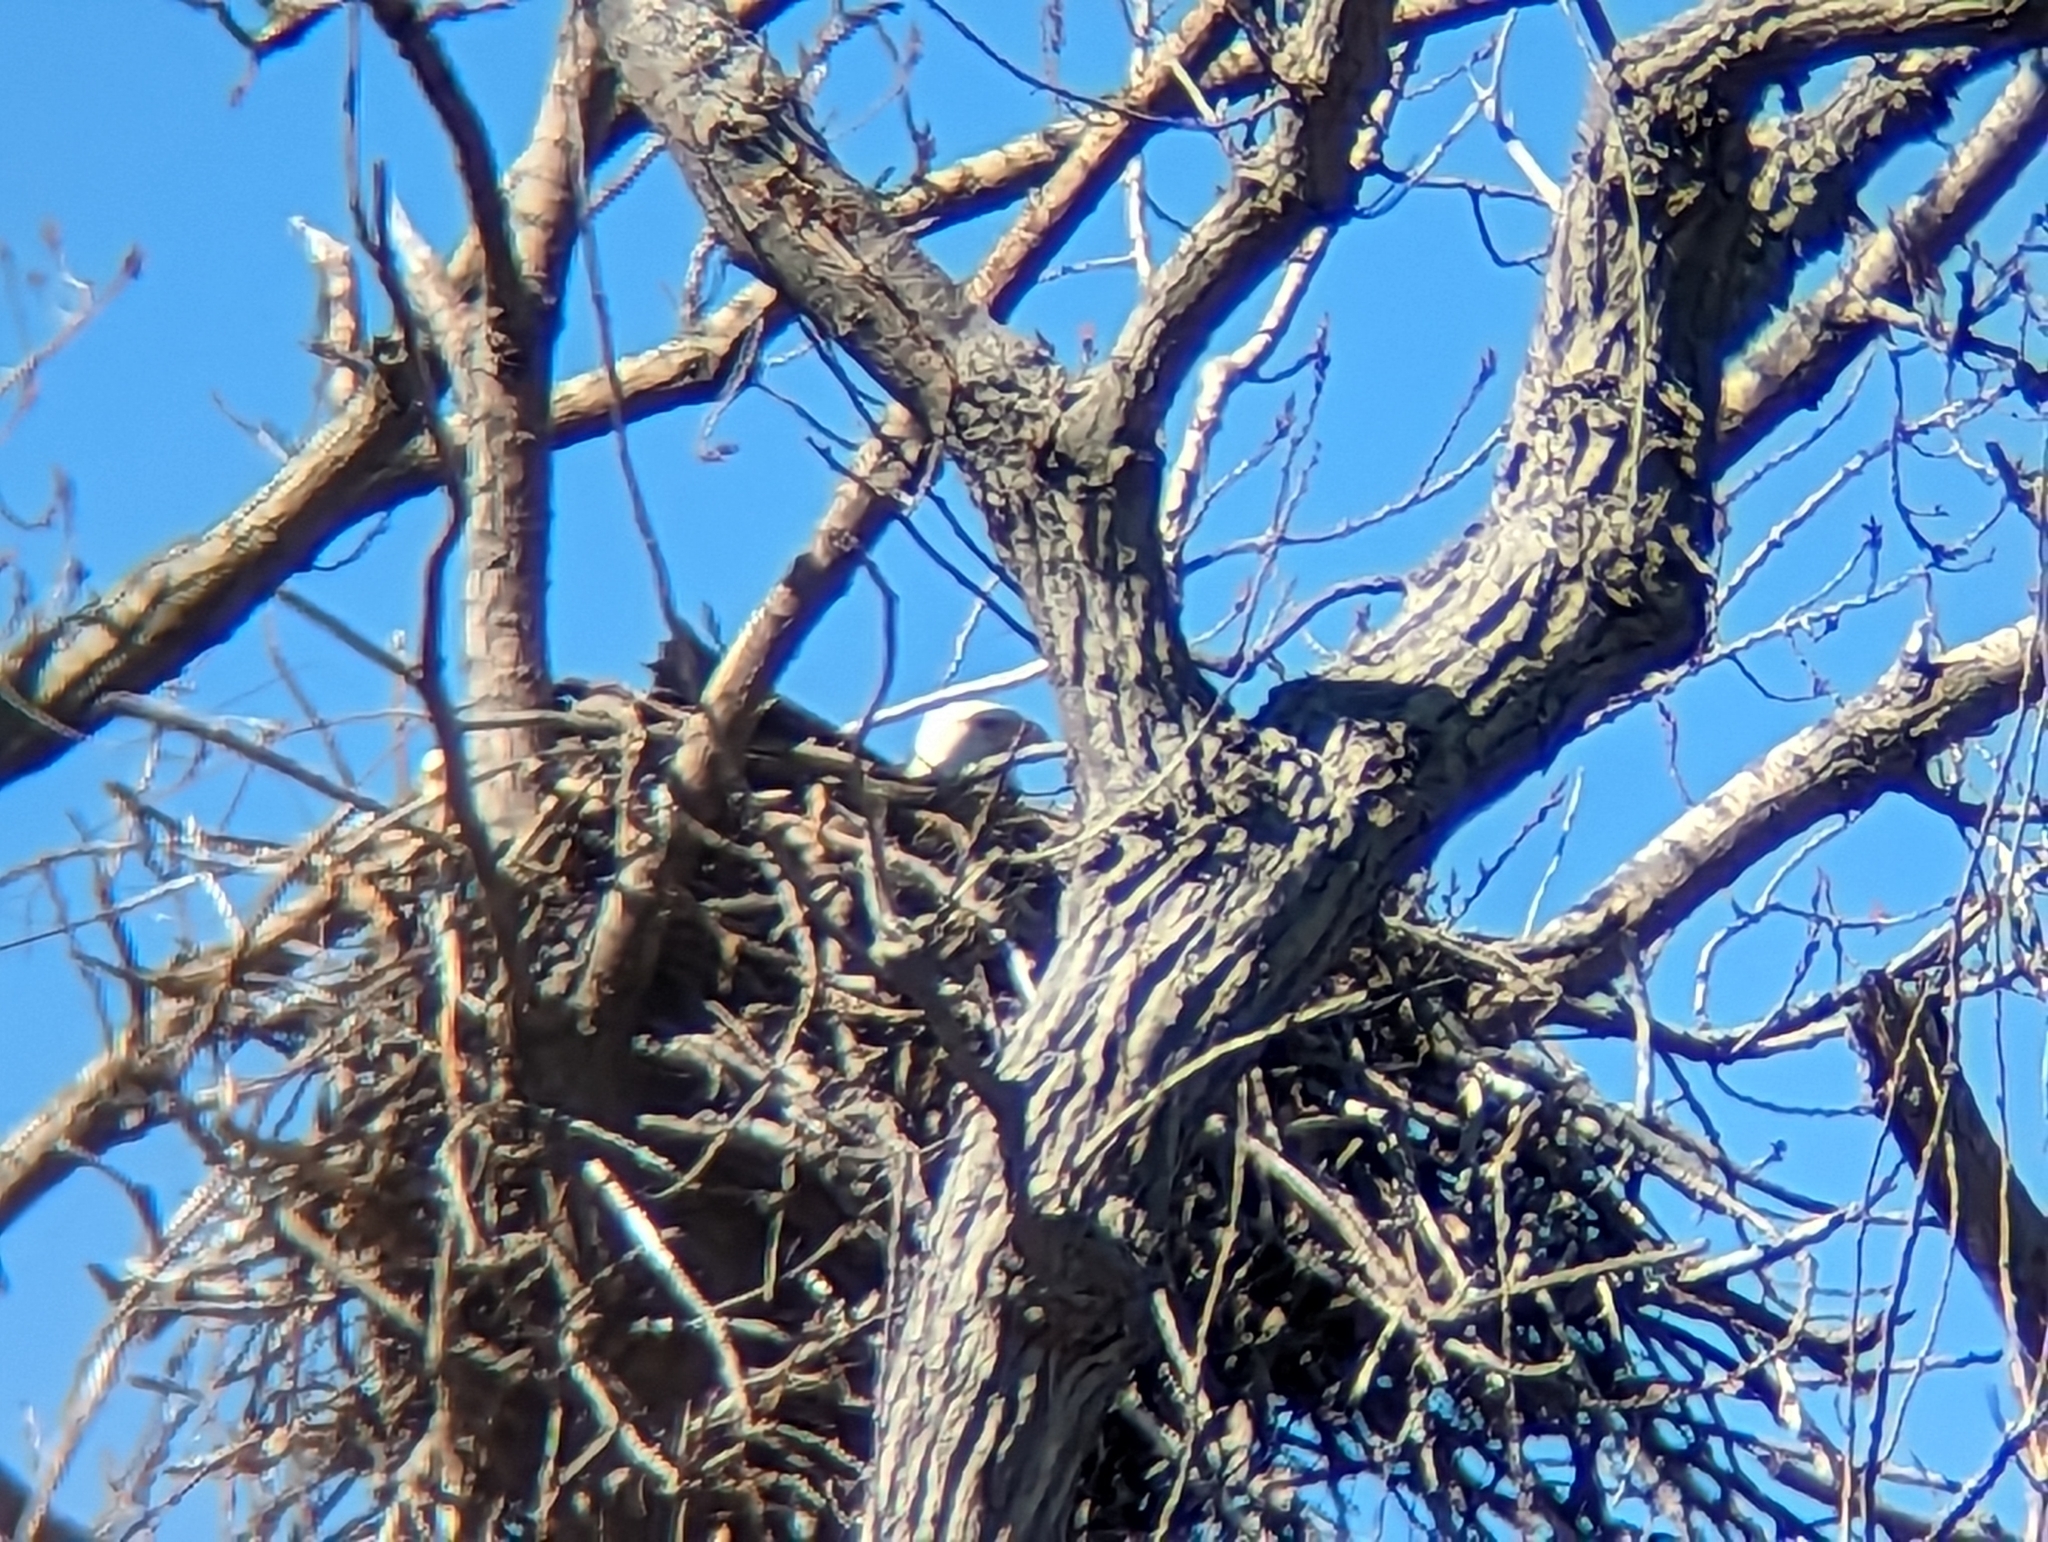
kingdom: Animalia
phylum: Chordata
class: Aves
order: Accipitriformes
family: Accipitridae
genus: Haliaeetus
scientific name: Haliaeetus leucocephalus
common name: Bald eagle
